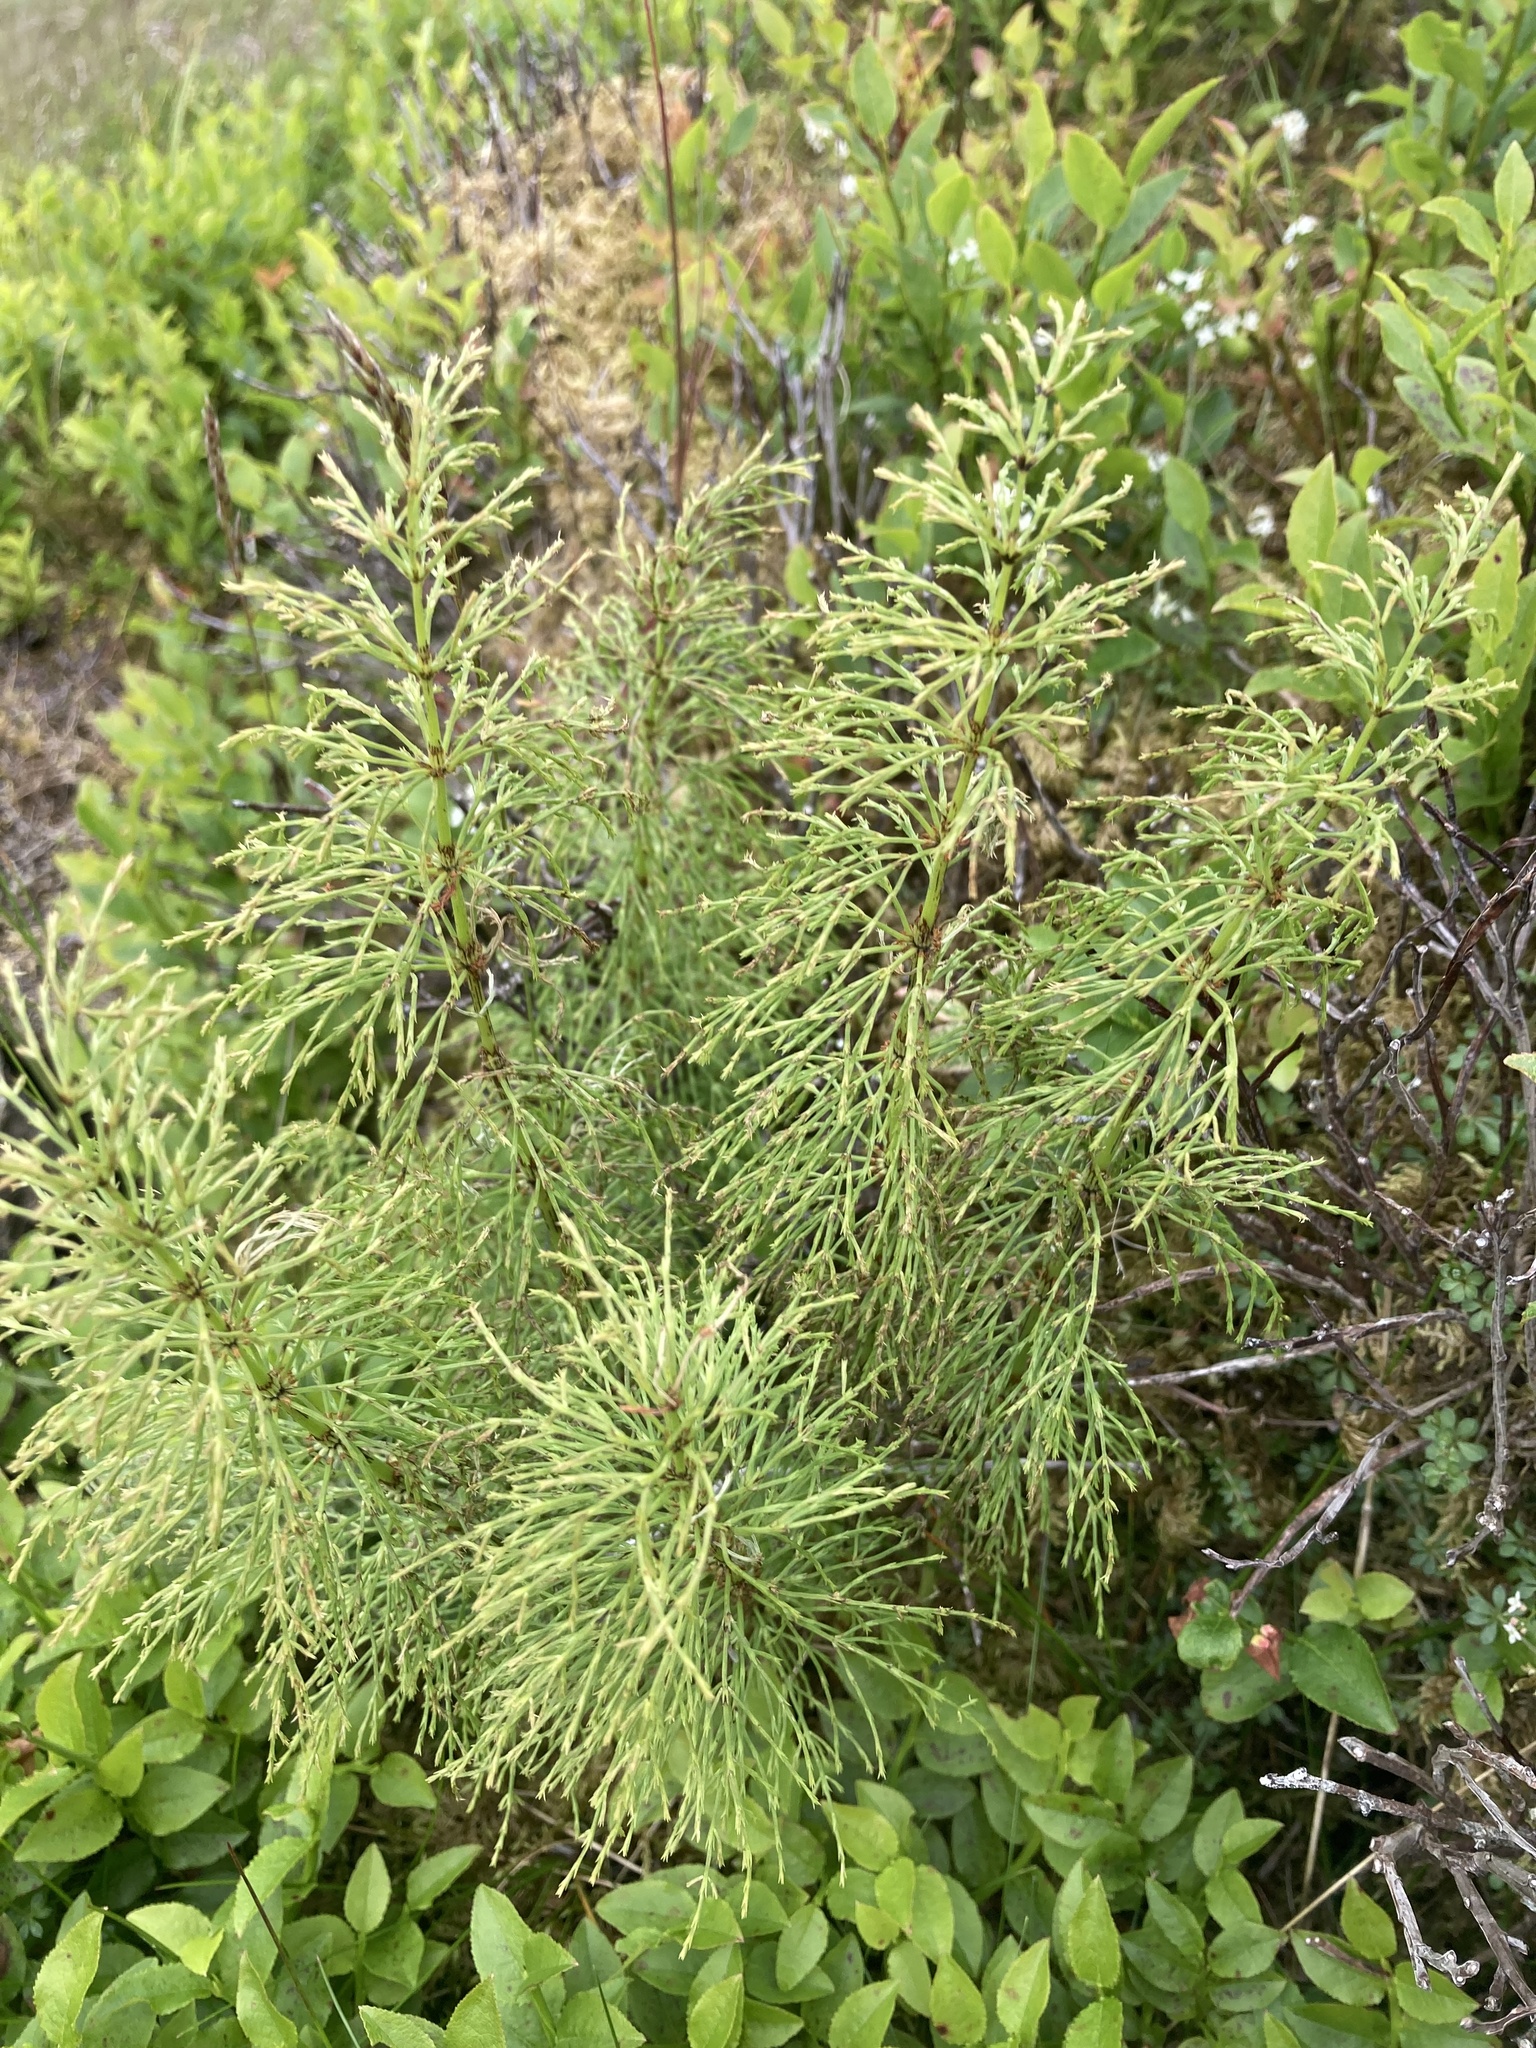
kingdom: Plantae
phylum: Tracheophyta
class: Polypodiopsida
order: Equisetales
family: Equisetaceae
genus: Equisetum
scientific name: Equisetum sylvaticum
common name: Wood horsetail
